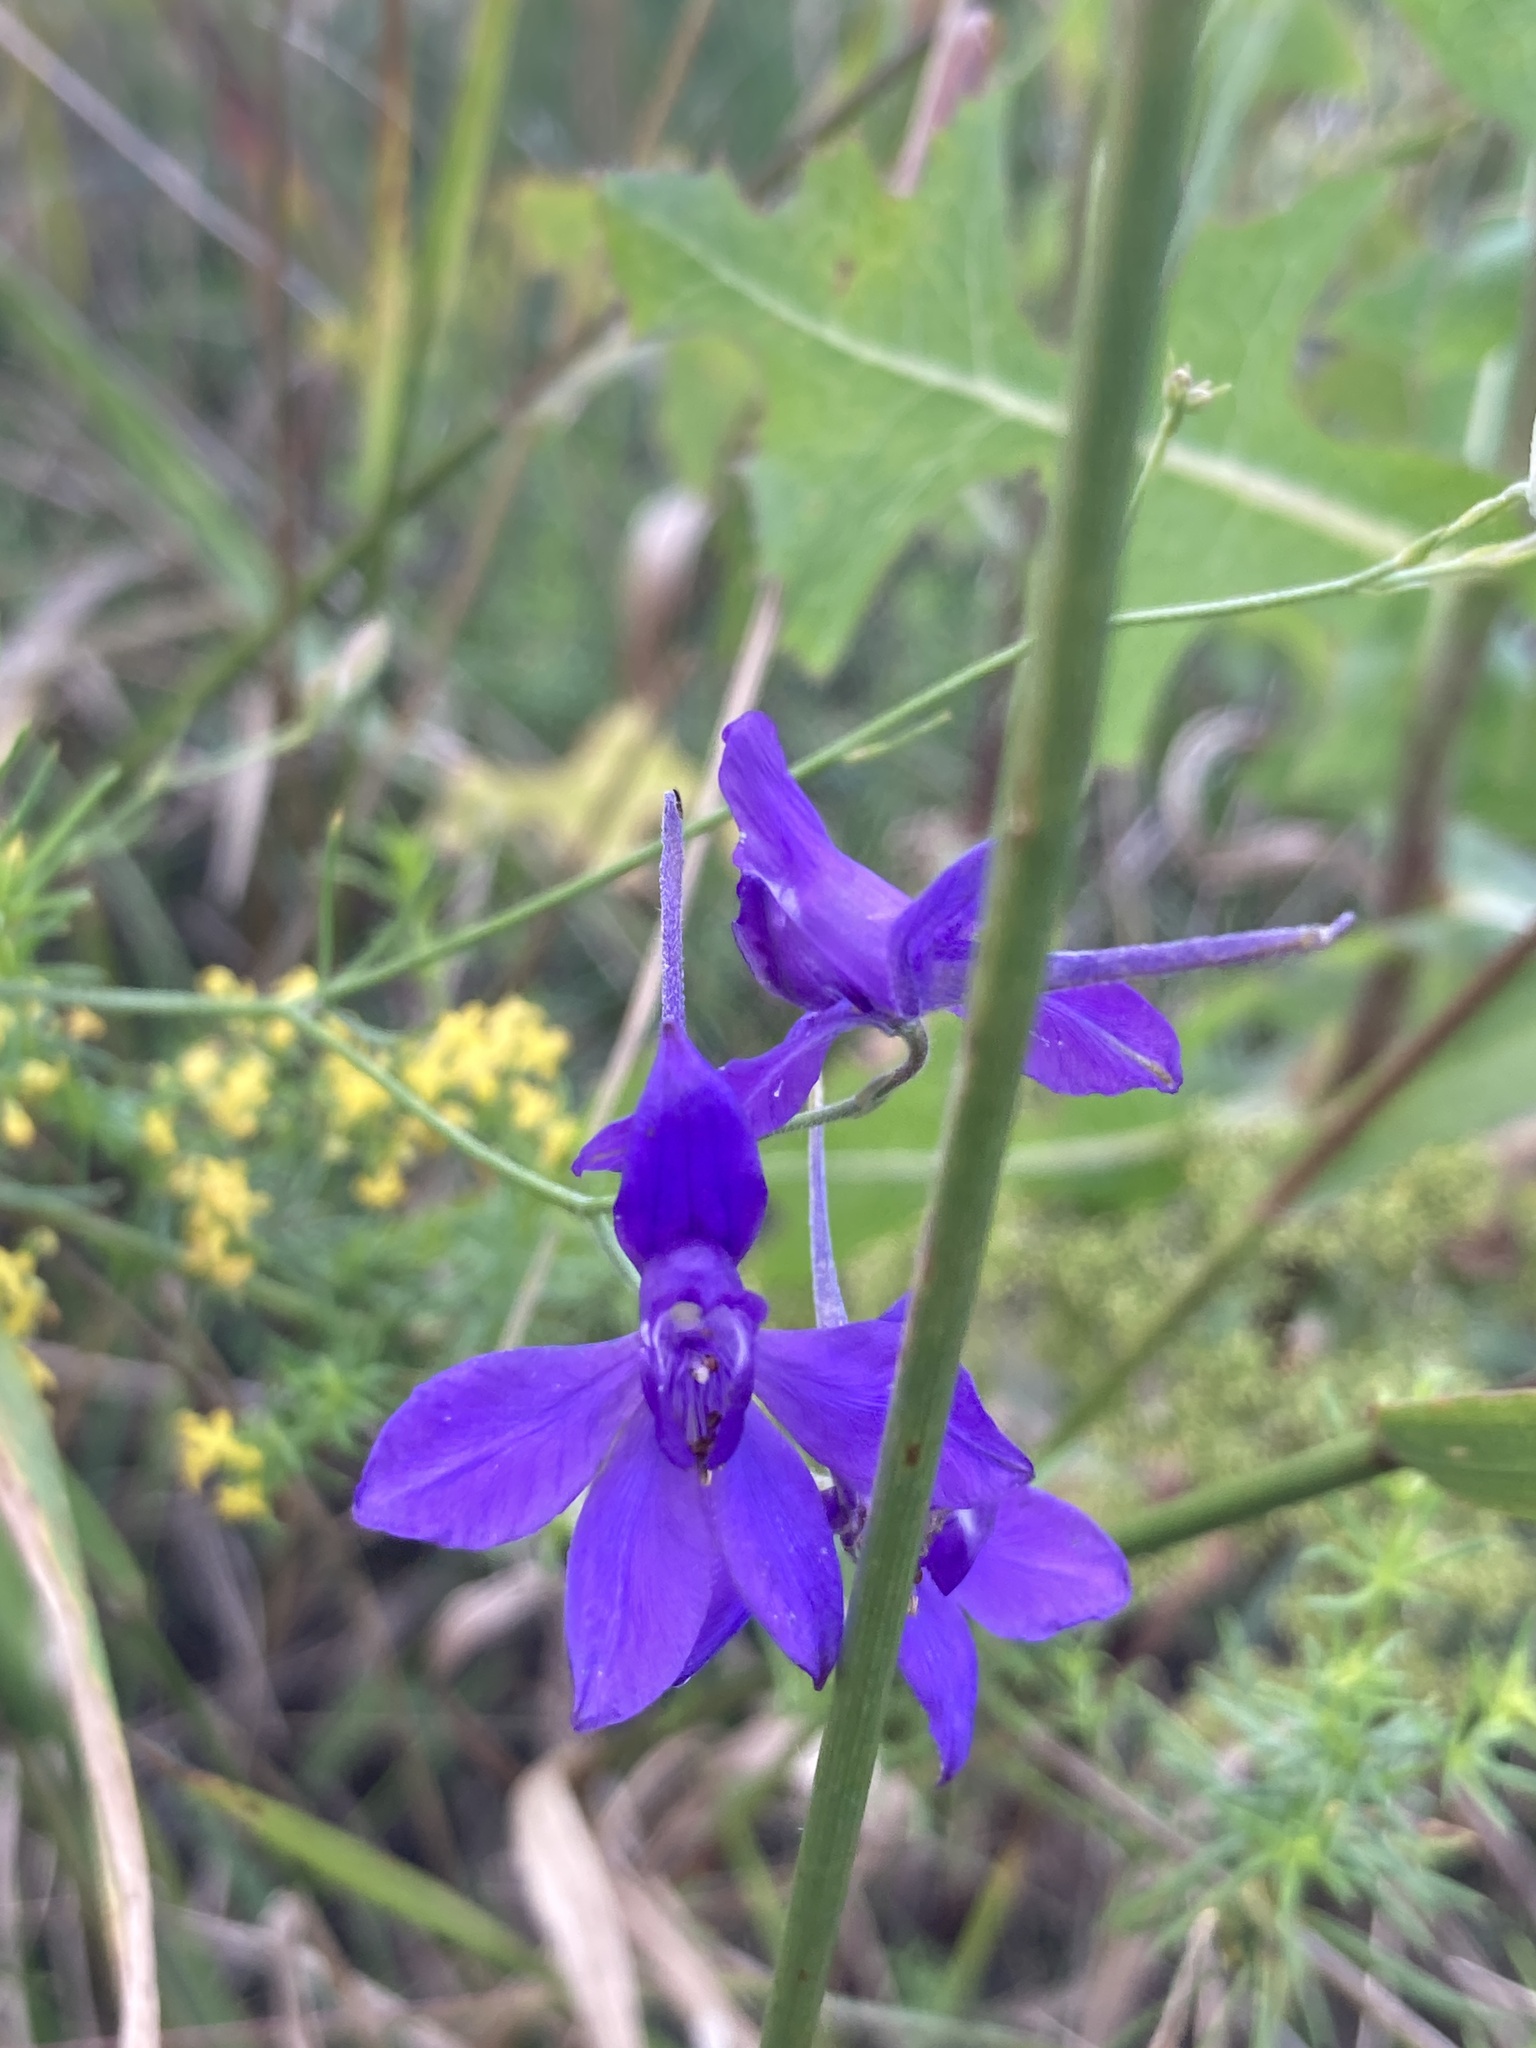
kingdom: Plantae
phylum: Tracheophyta
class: Magnoliopsida
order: Ranunculales
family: Ranunculaceae
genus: Delphinium
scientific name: Delphinium consolida
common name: Branching larkspur
